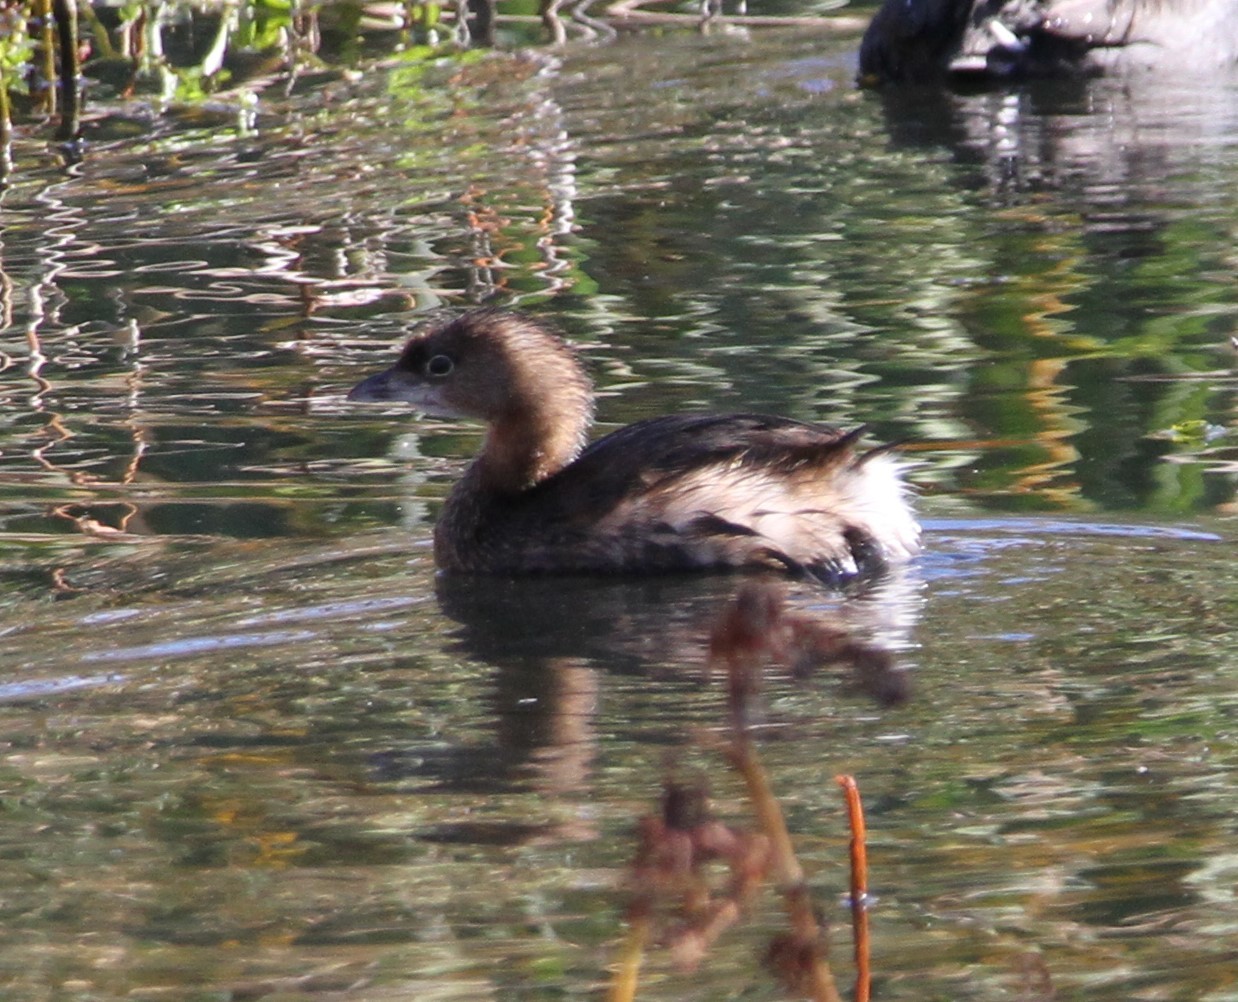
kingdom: Animalia
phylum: Chordata
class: Aves
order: Podicipediformes
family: Podicipedidae
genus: Podilymbus
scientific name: Podilymbus podiceps
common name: Pied-billed grebe
